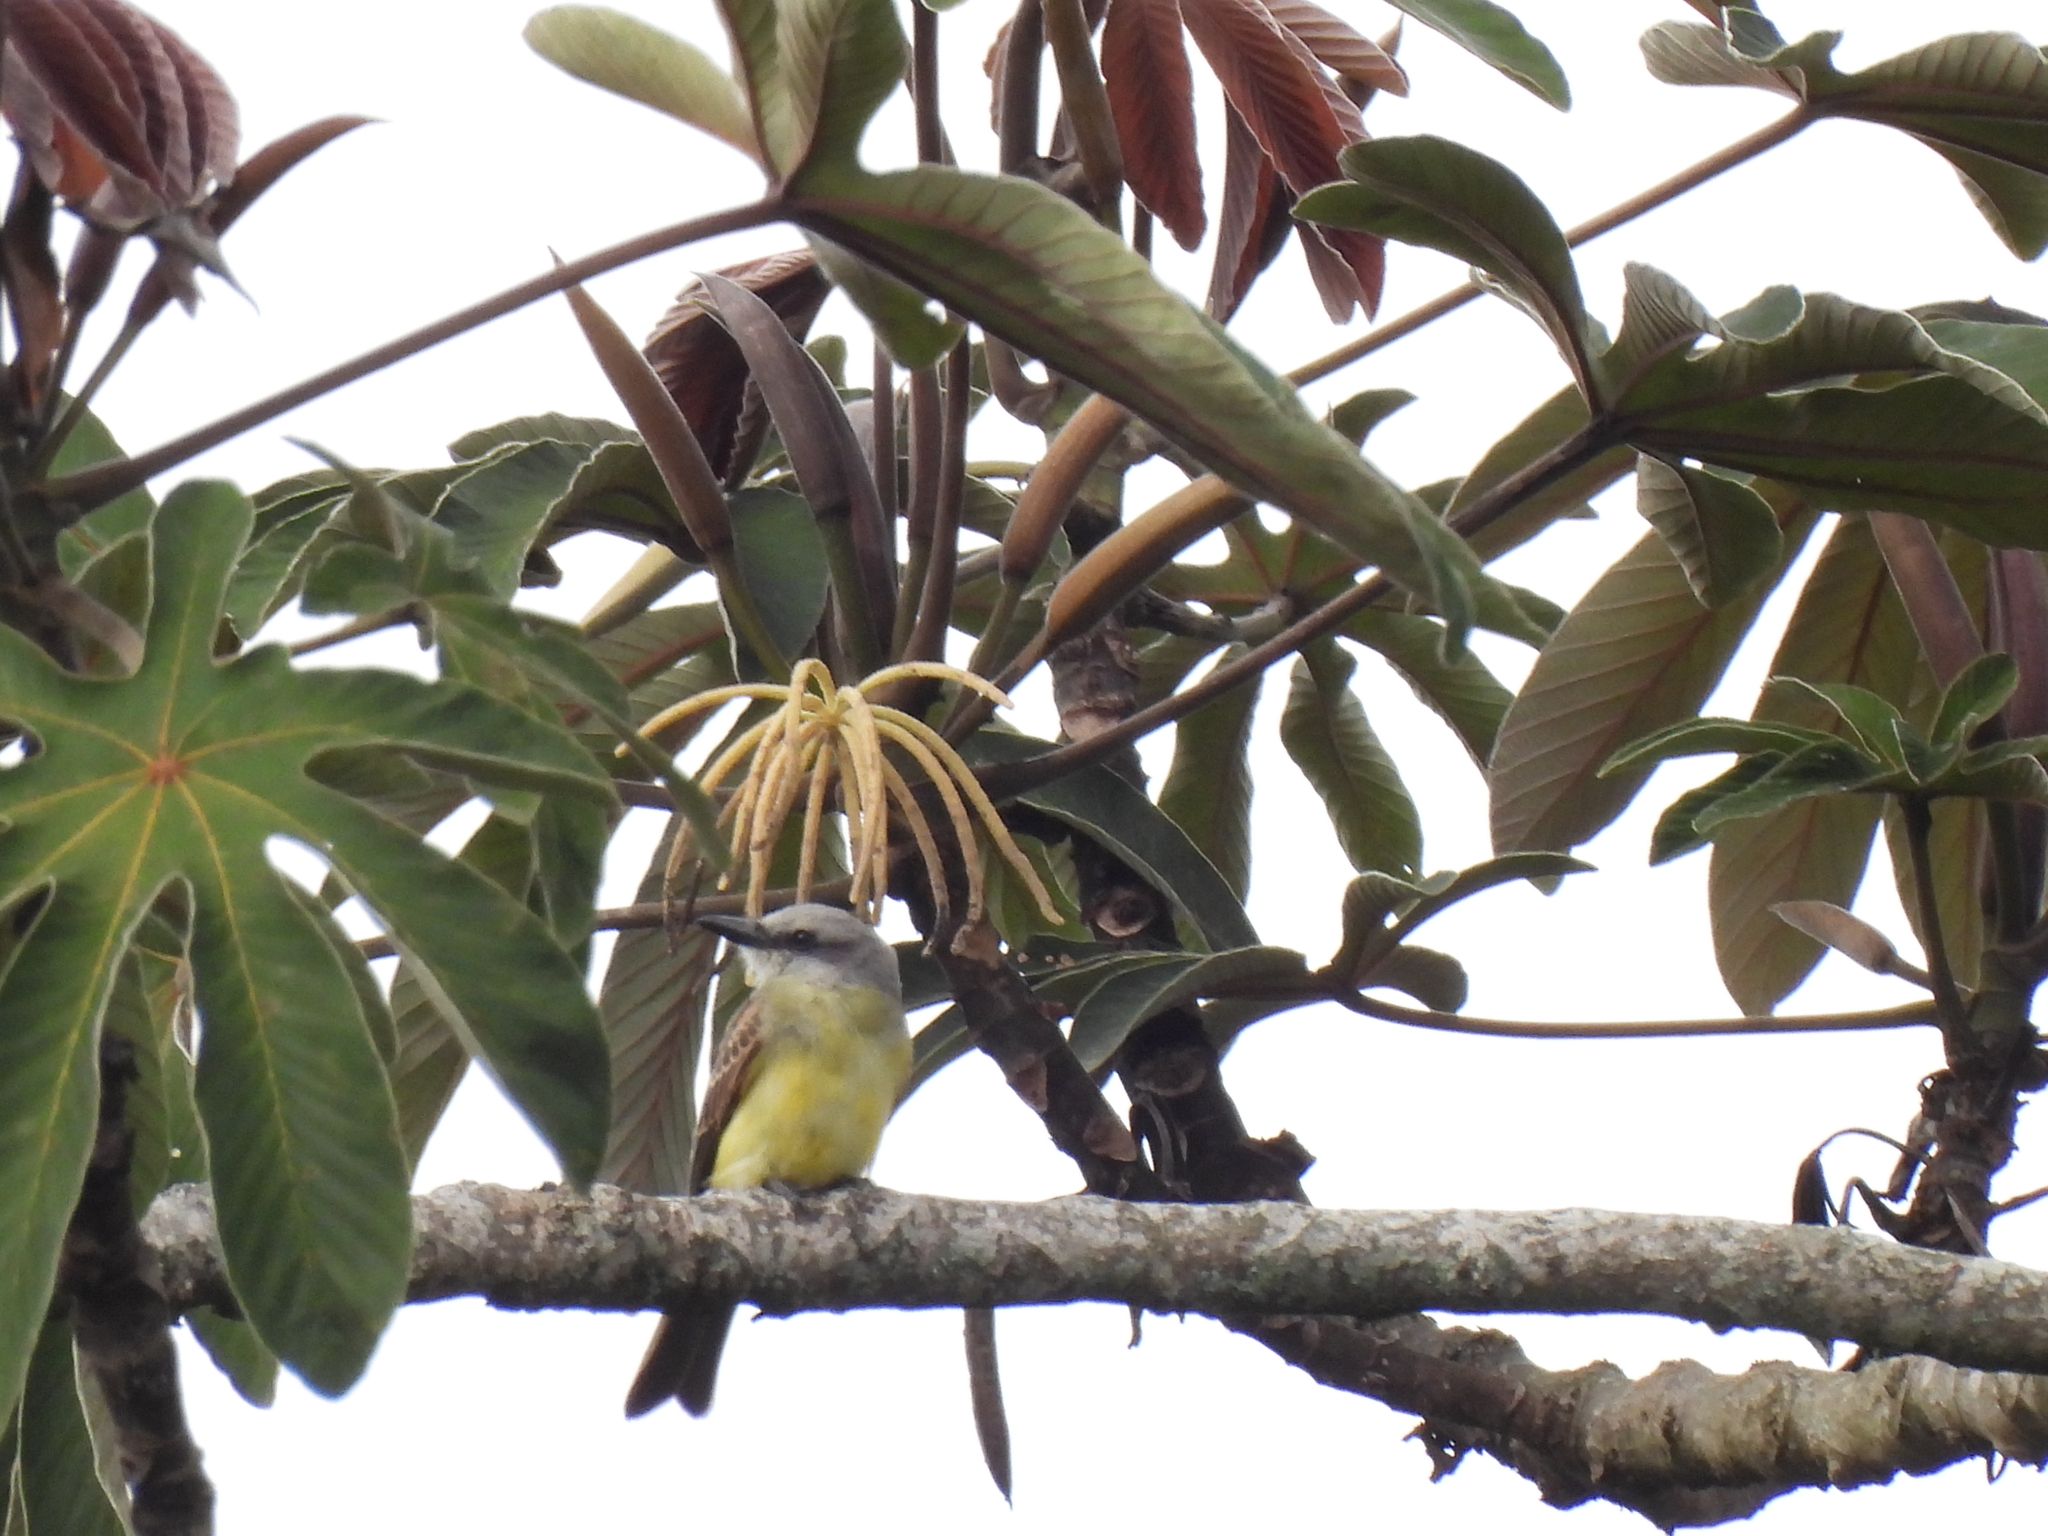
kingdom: Animalia
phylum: Chordata
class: Aves
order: Passeriformes
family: Tyrannidae
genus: Tyrannus
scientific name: Tyrannus melancholicus
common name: Tropical kingbird
